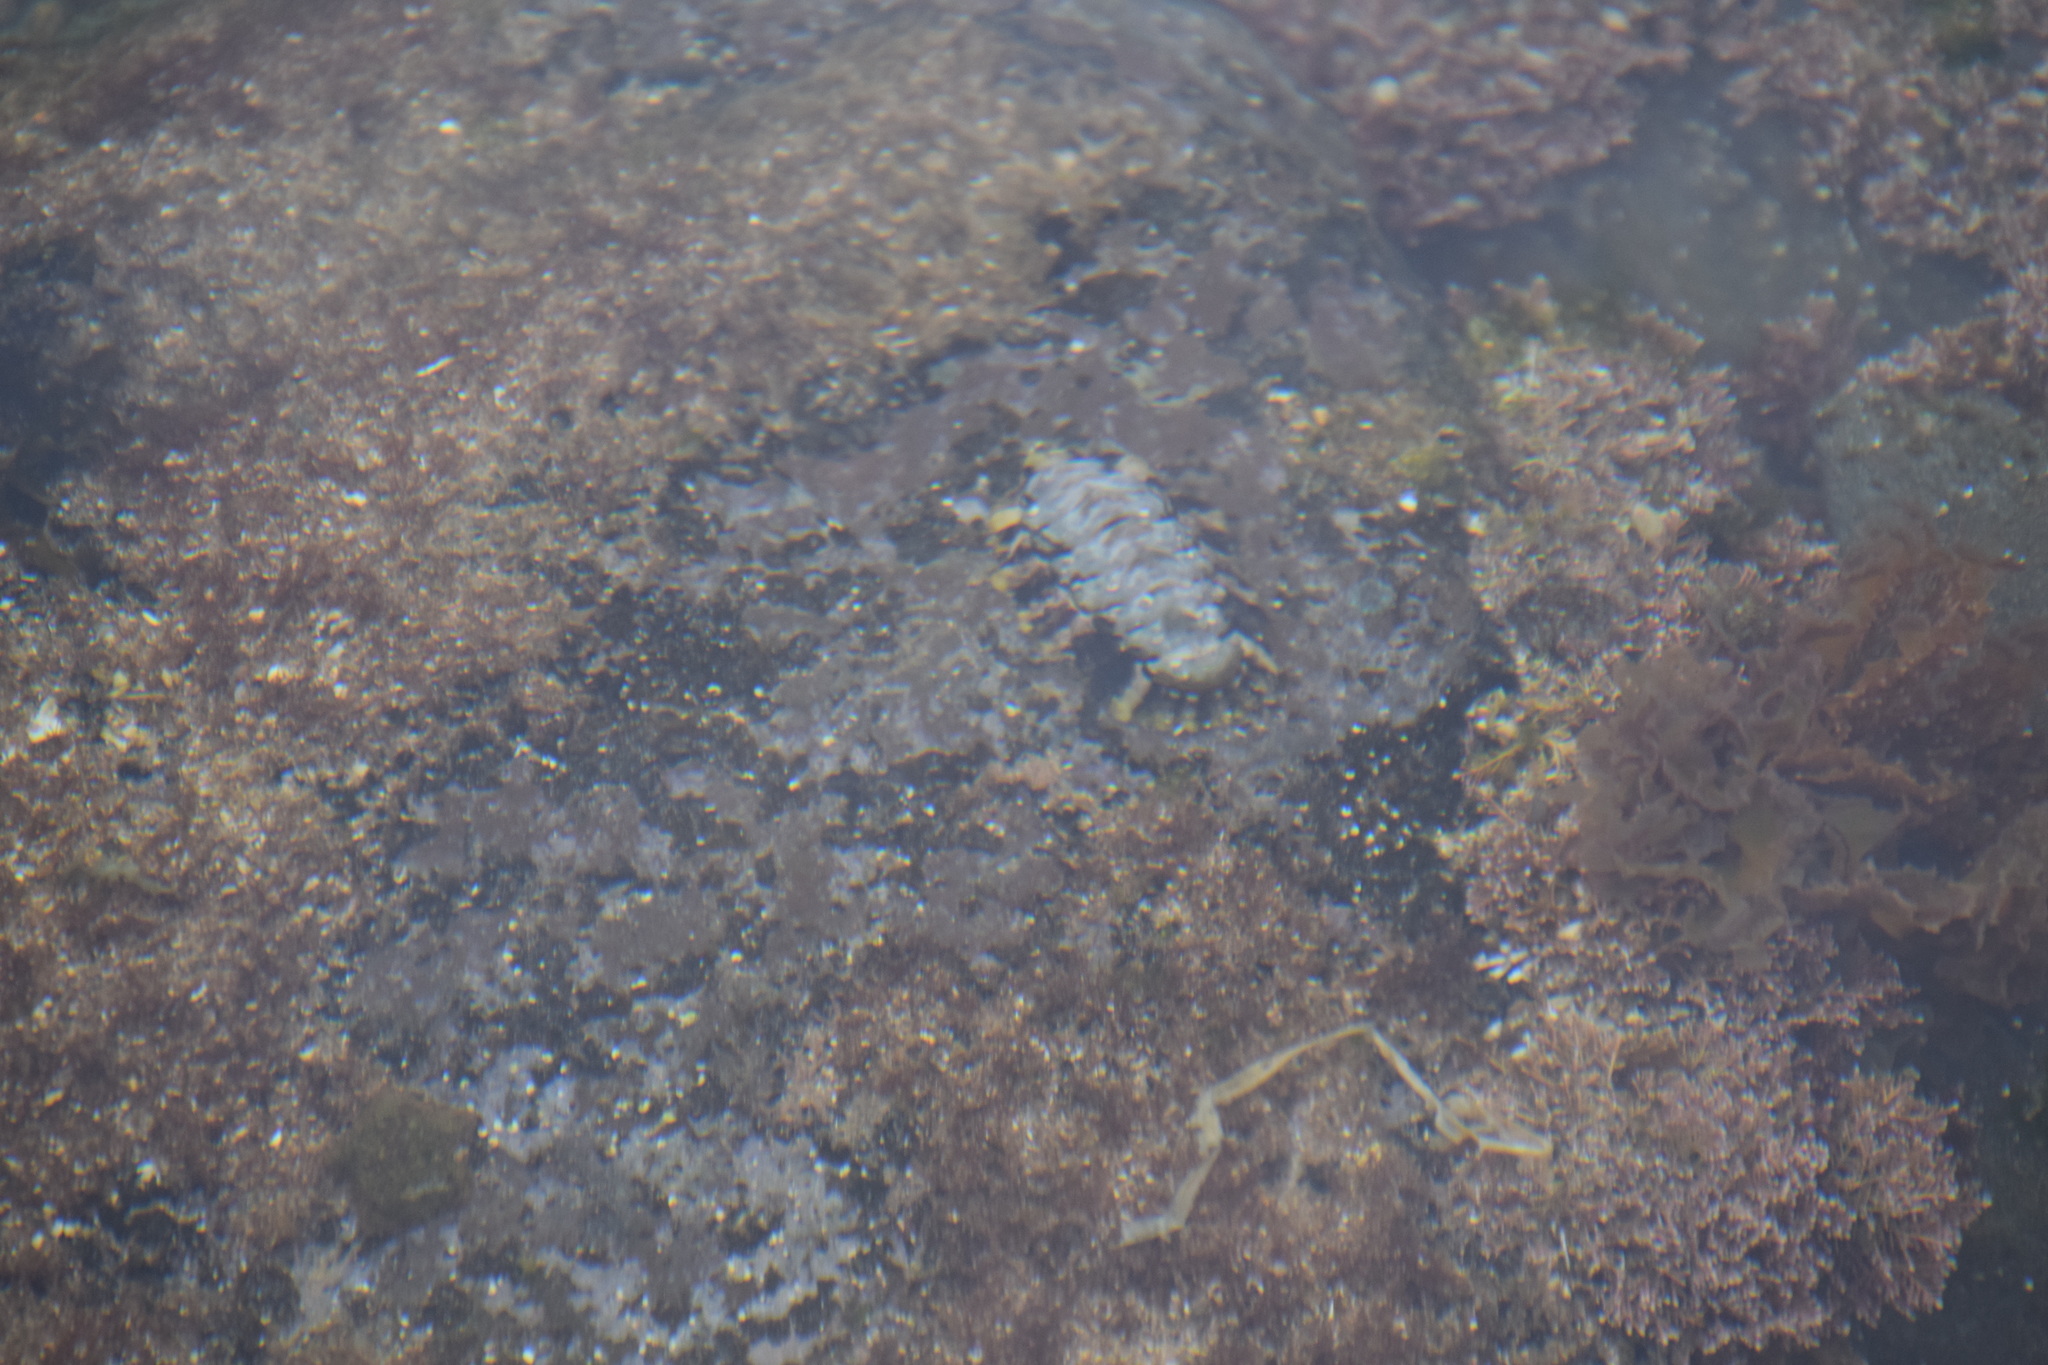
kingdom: Animalia
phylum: Mollusca
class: Polyplacophora
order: Chitonida
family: Chitonidae
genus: Liolophura
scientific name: Liolophura gaimardi
